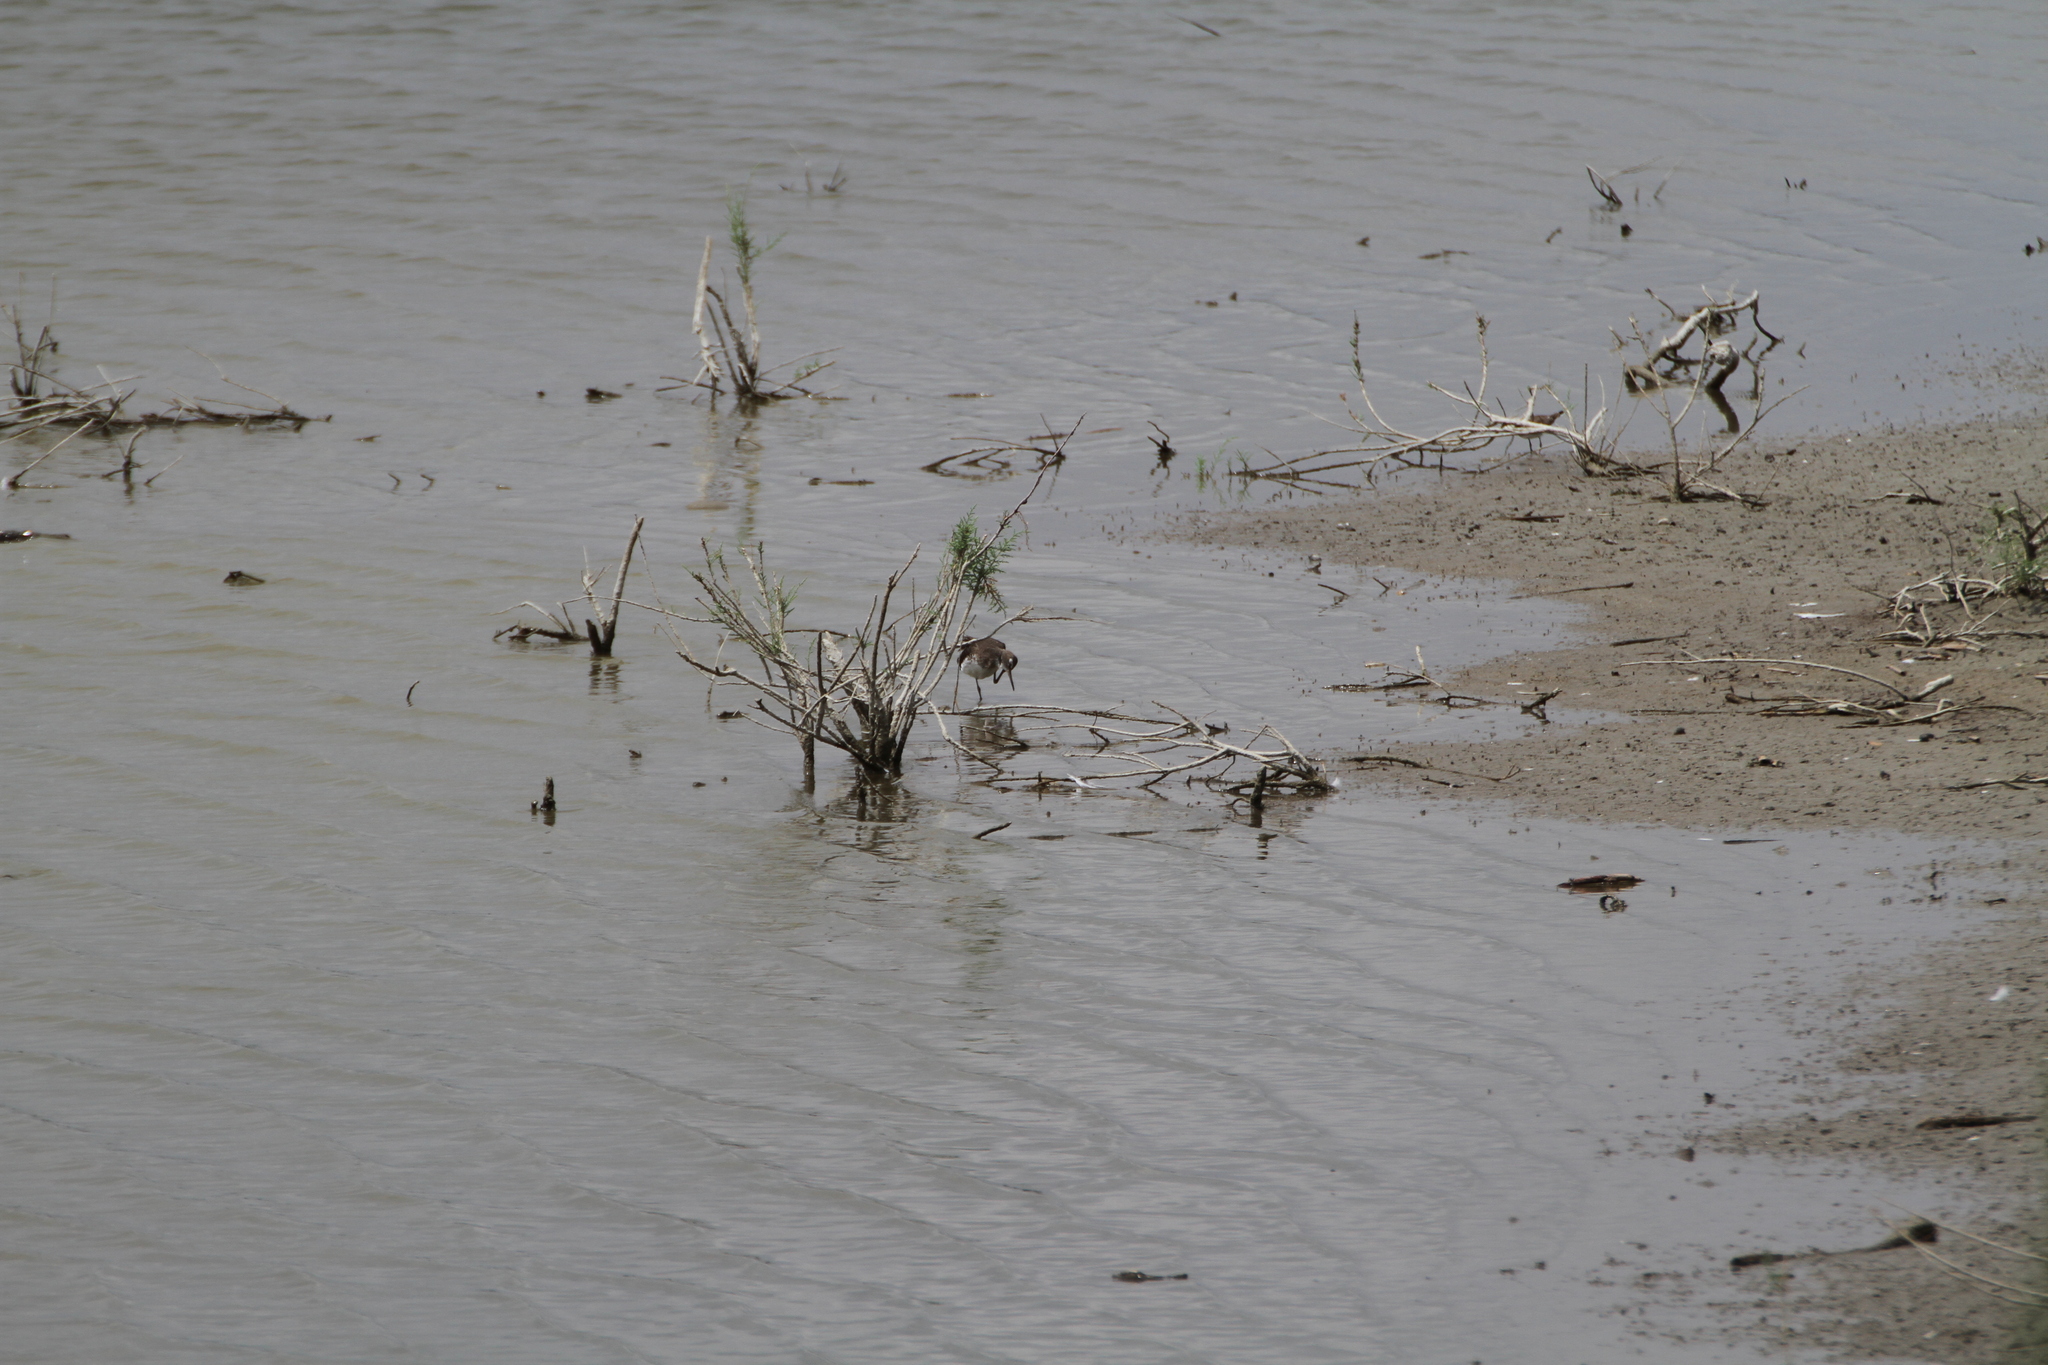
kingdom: Animalia
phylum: Chordata
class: Aves
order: Charadriiformes
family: Scolopacidae
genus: Tringa
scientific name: Tringa ochropus
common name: Green sandpiper
